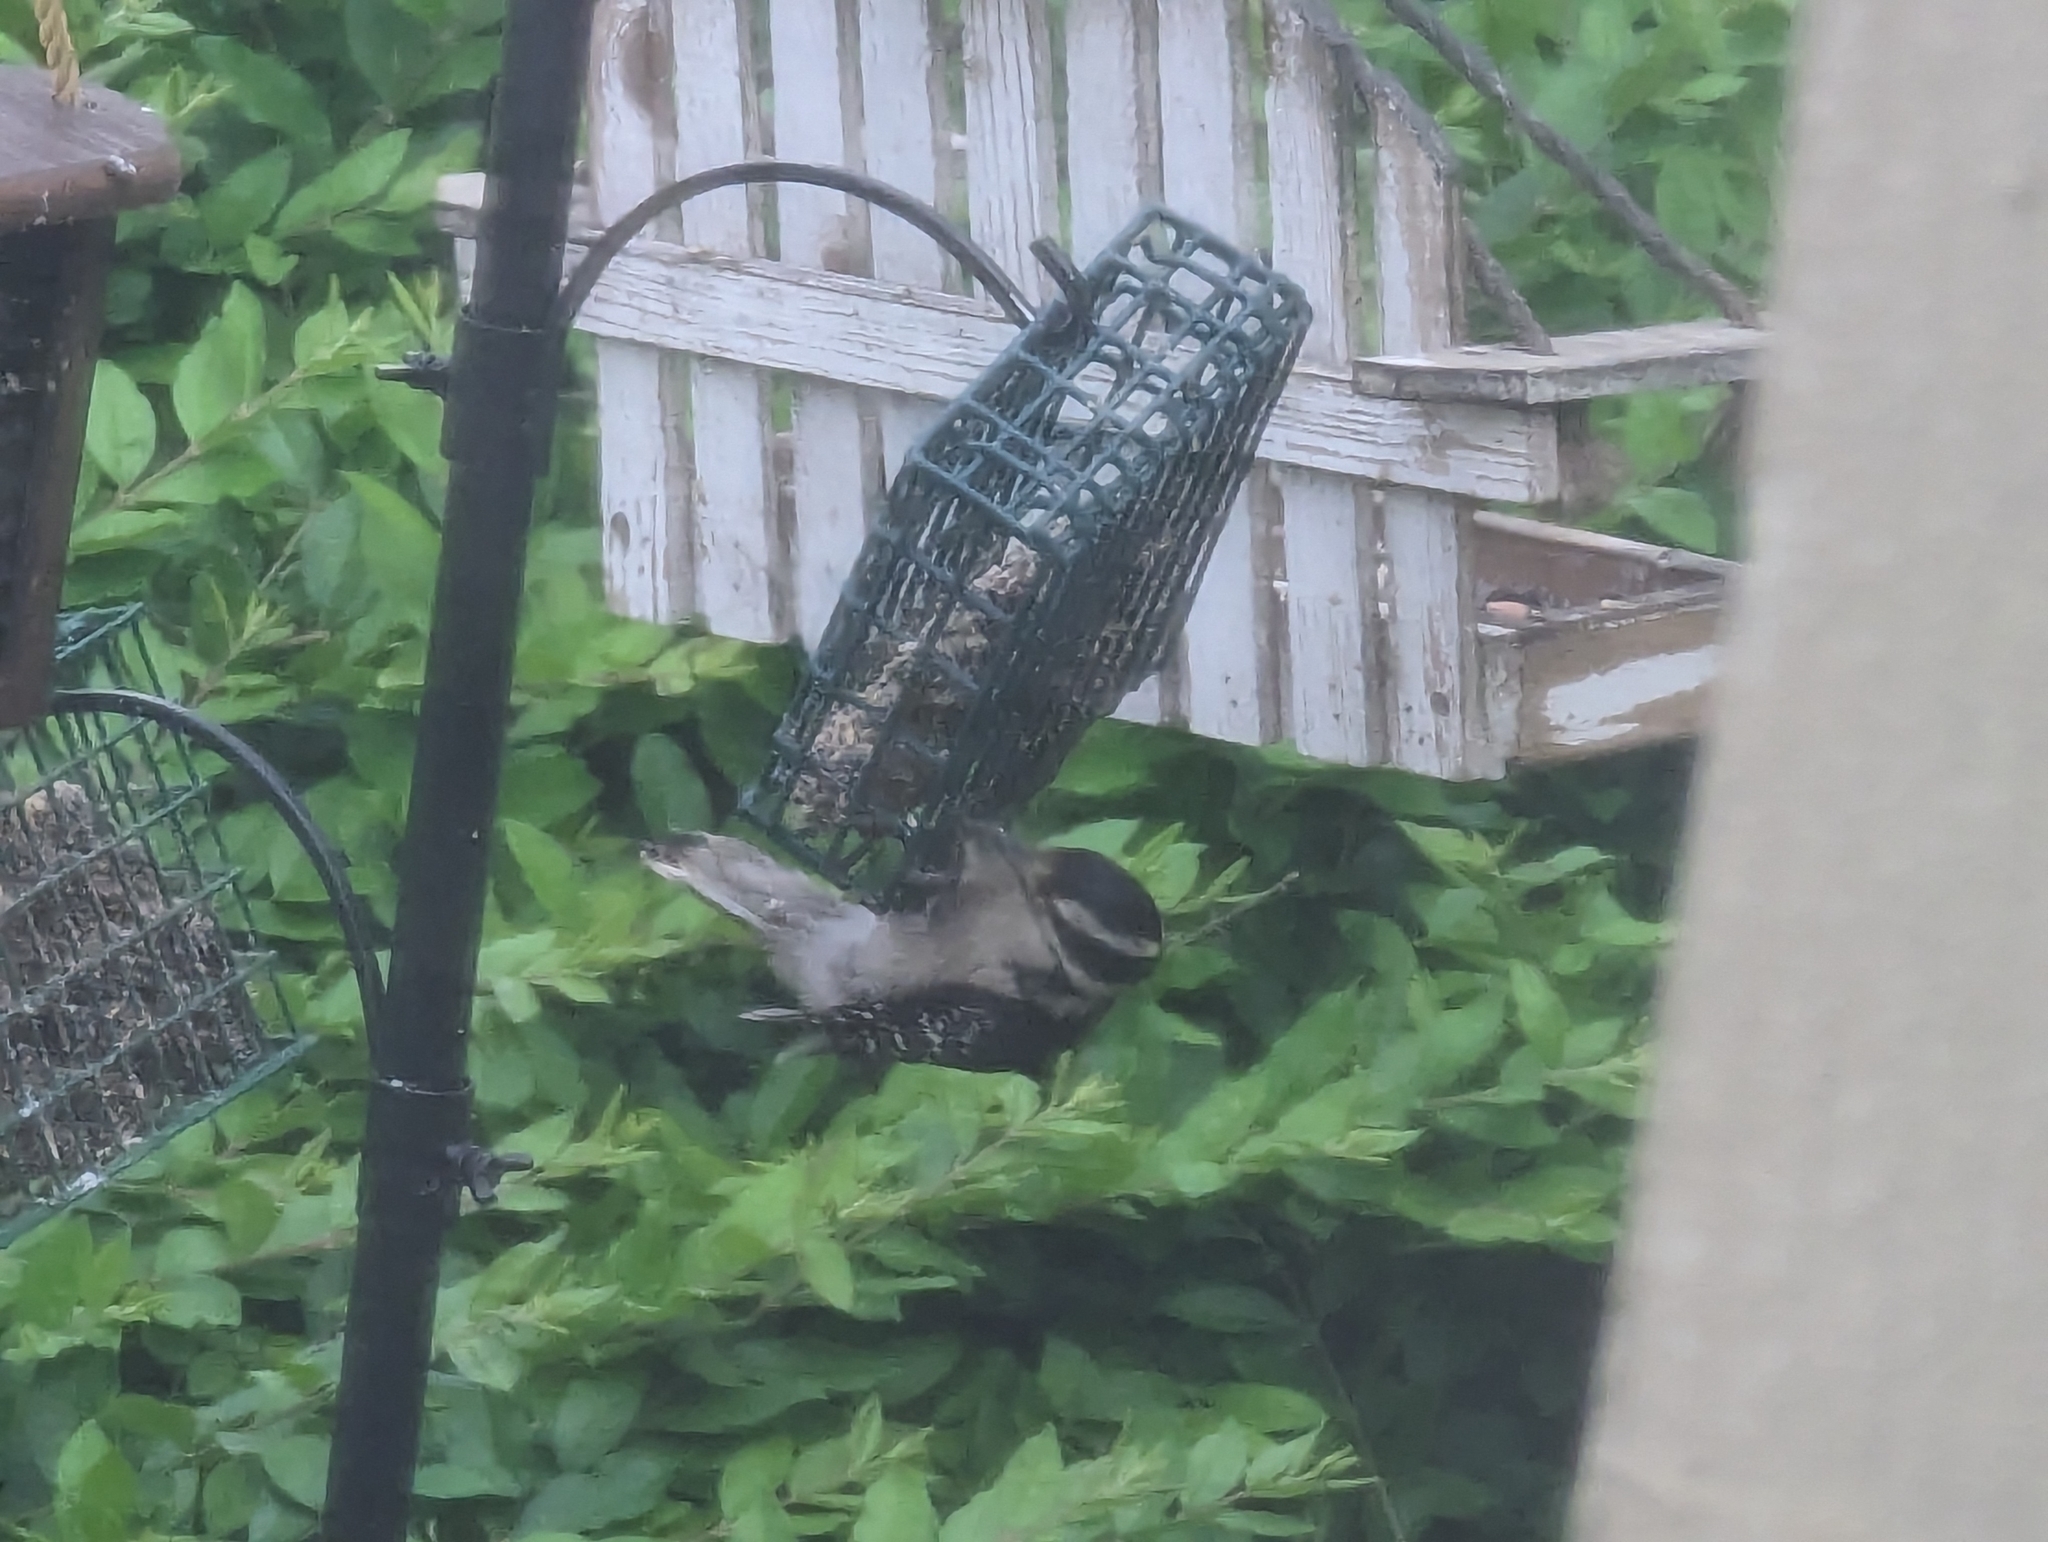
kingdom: Animalia
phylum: Chordata
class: Aves
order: Piciformes
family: Picidae
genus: Dryobates
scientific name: Dryobates pubescens
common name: Downy woodpecker
